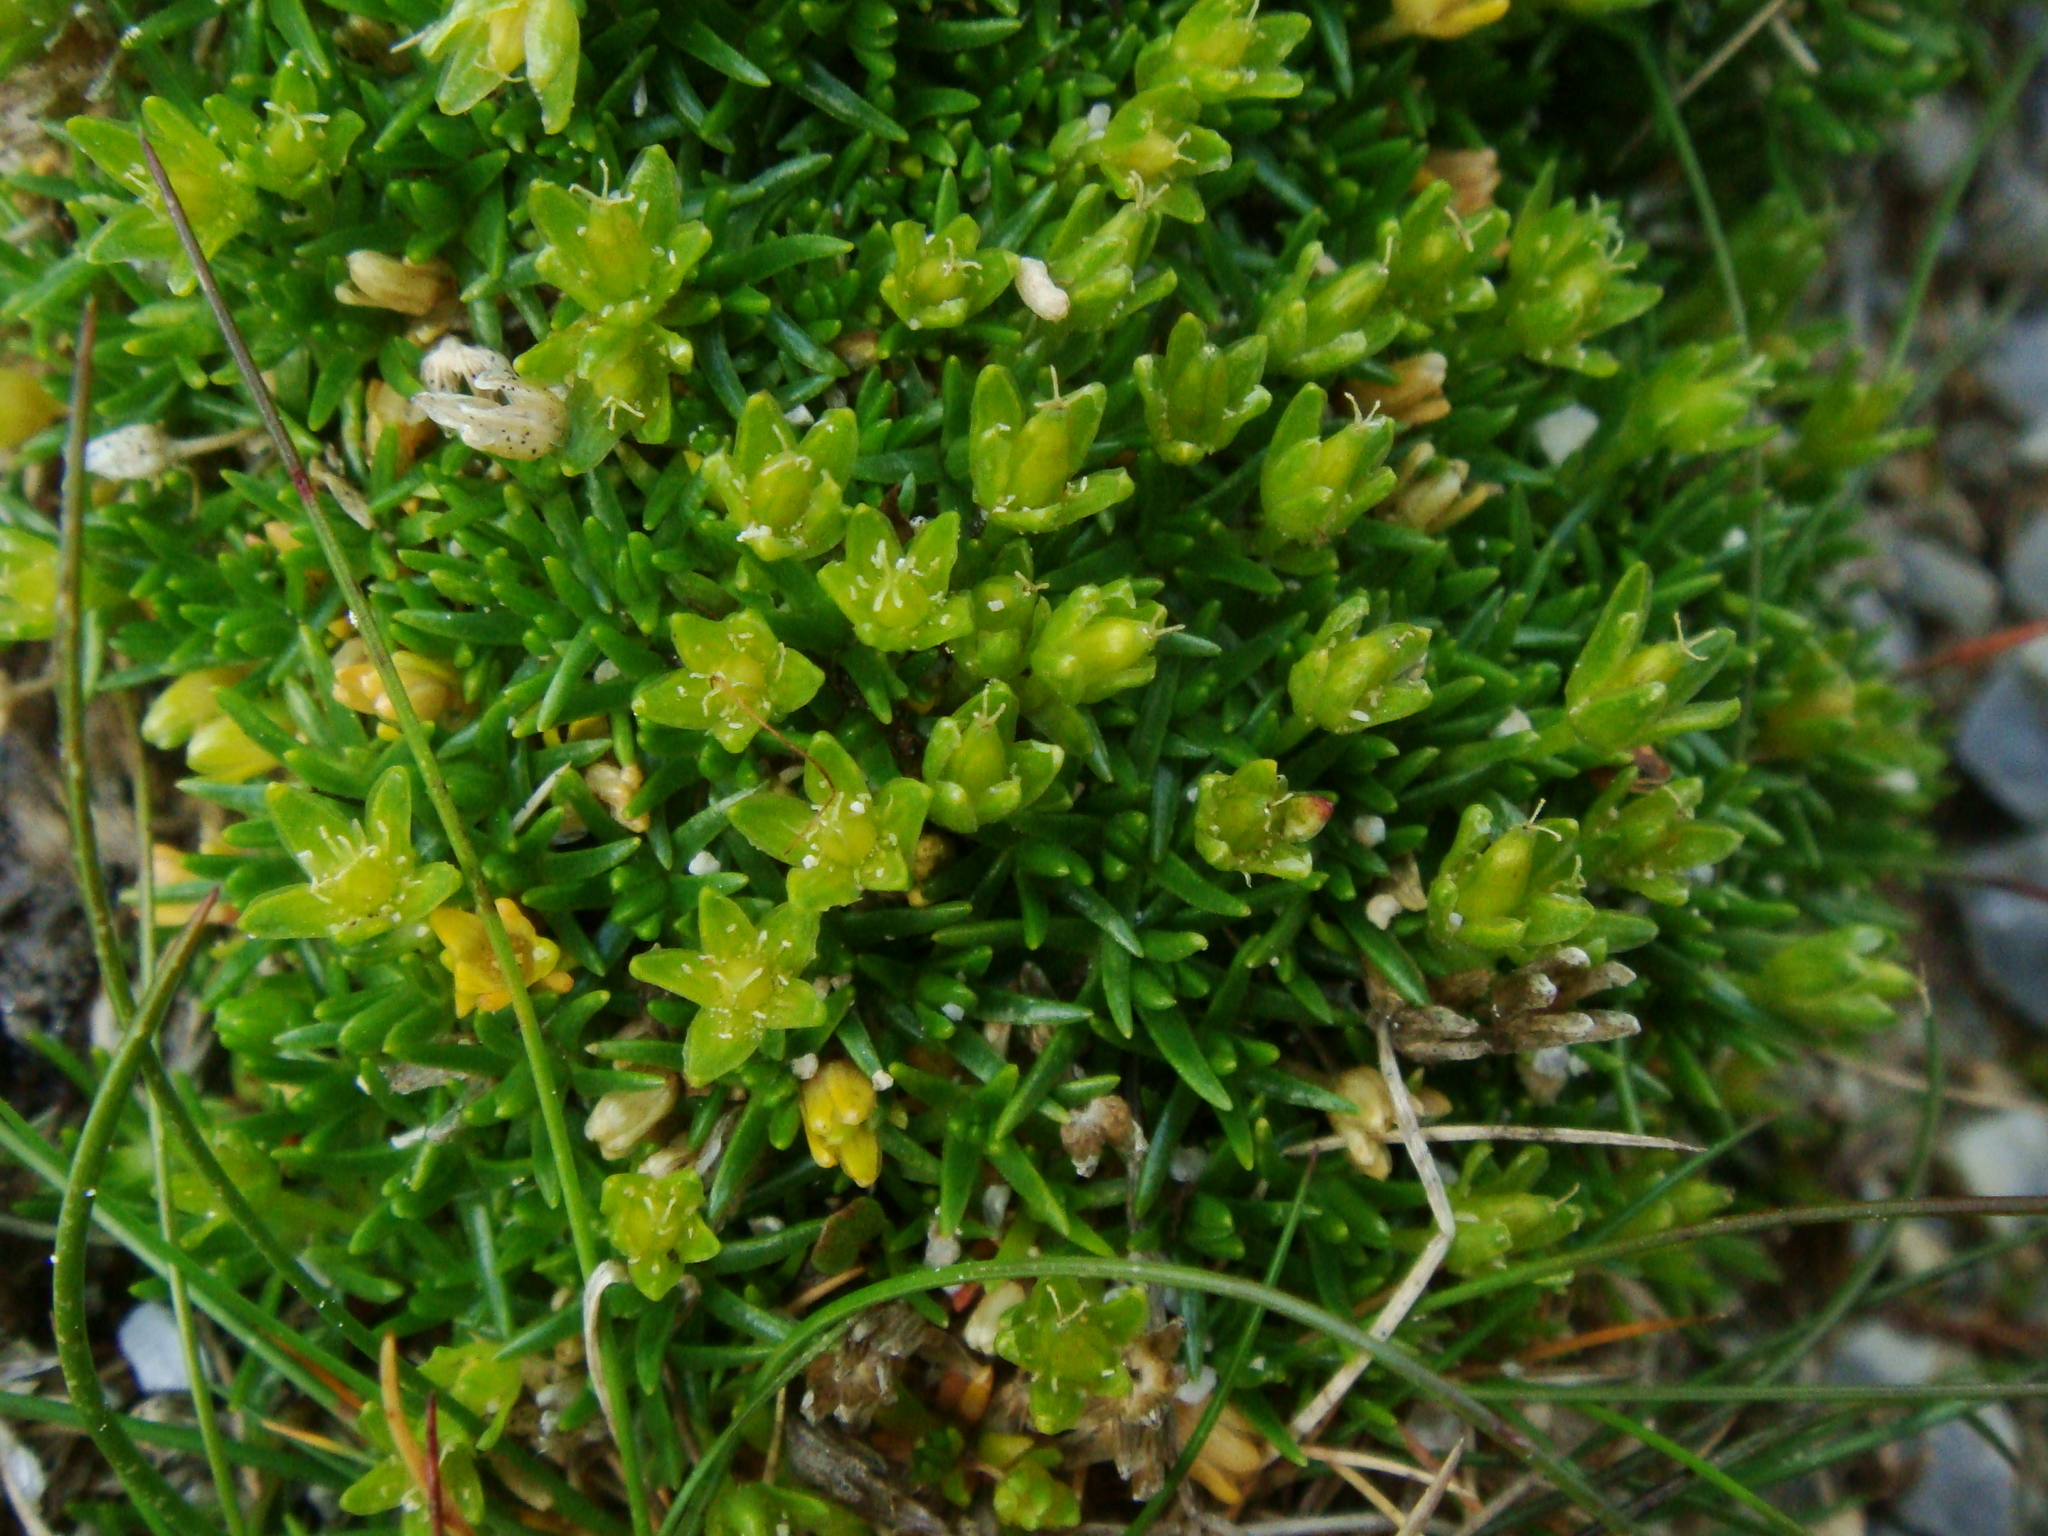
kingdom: Plantae
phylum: Tracheophyta
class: Magnoliopsida
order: Caryophyllales
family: Caryophyllaceae
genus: Cherleria
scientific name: Cherleria sedoides
